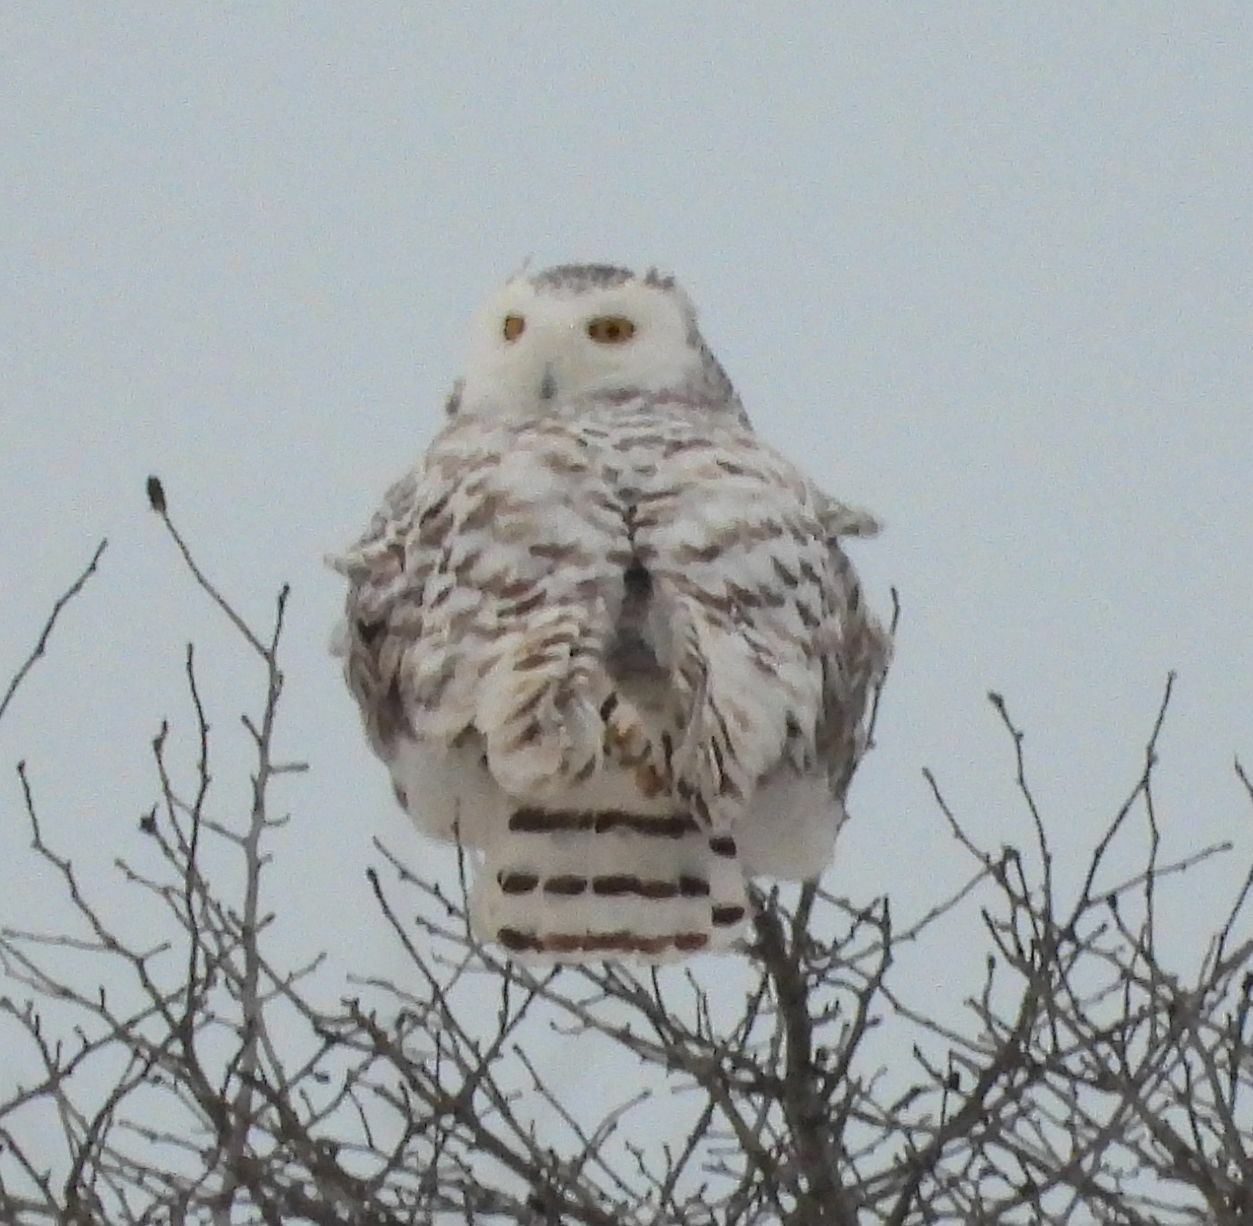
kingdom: Animalia
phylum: Chordata
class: Aves
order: Strigiformes
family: Strigidae
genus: Bubo
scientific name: Bubo scandiacus
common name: Snowy owl
